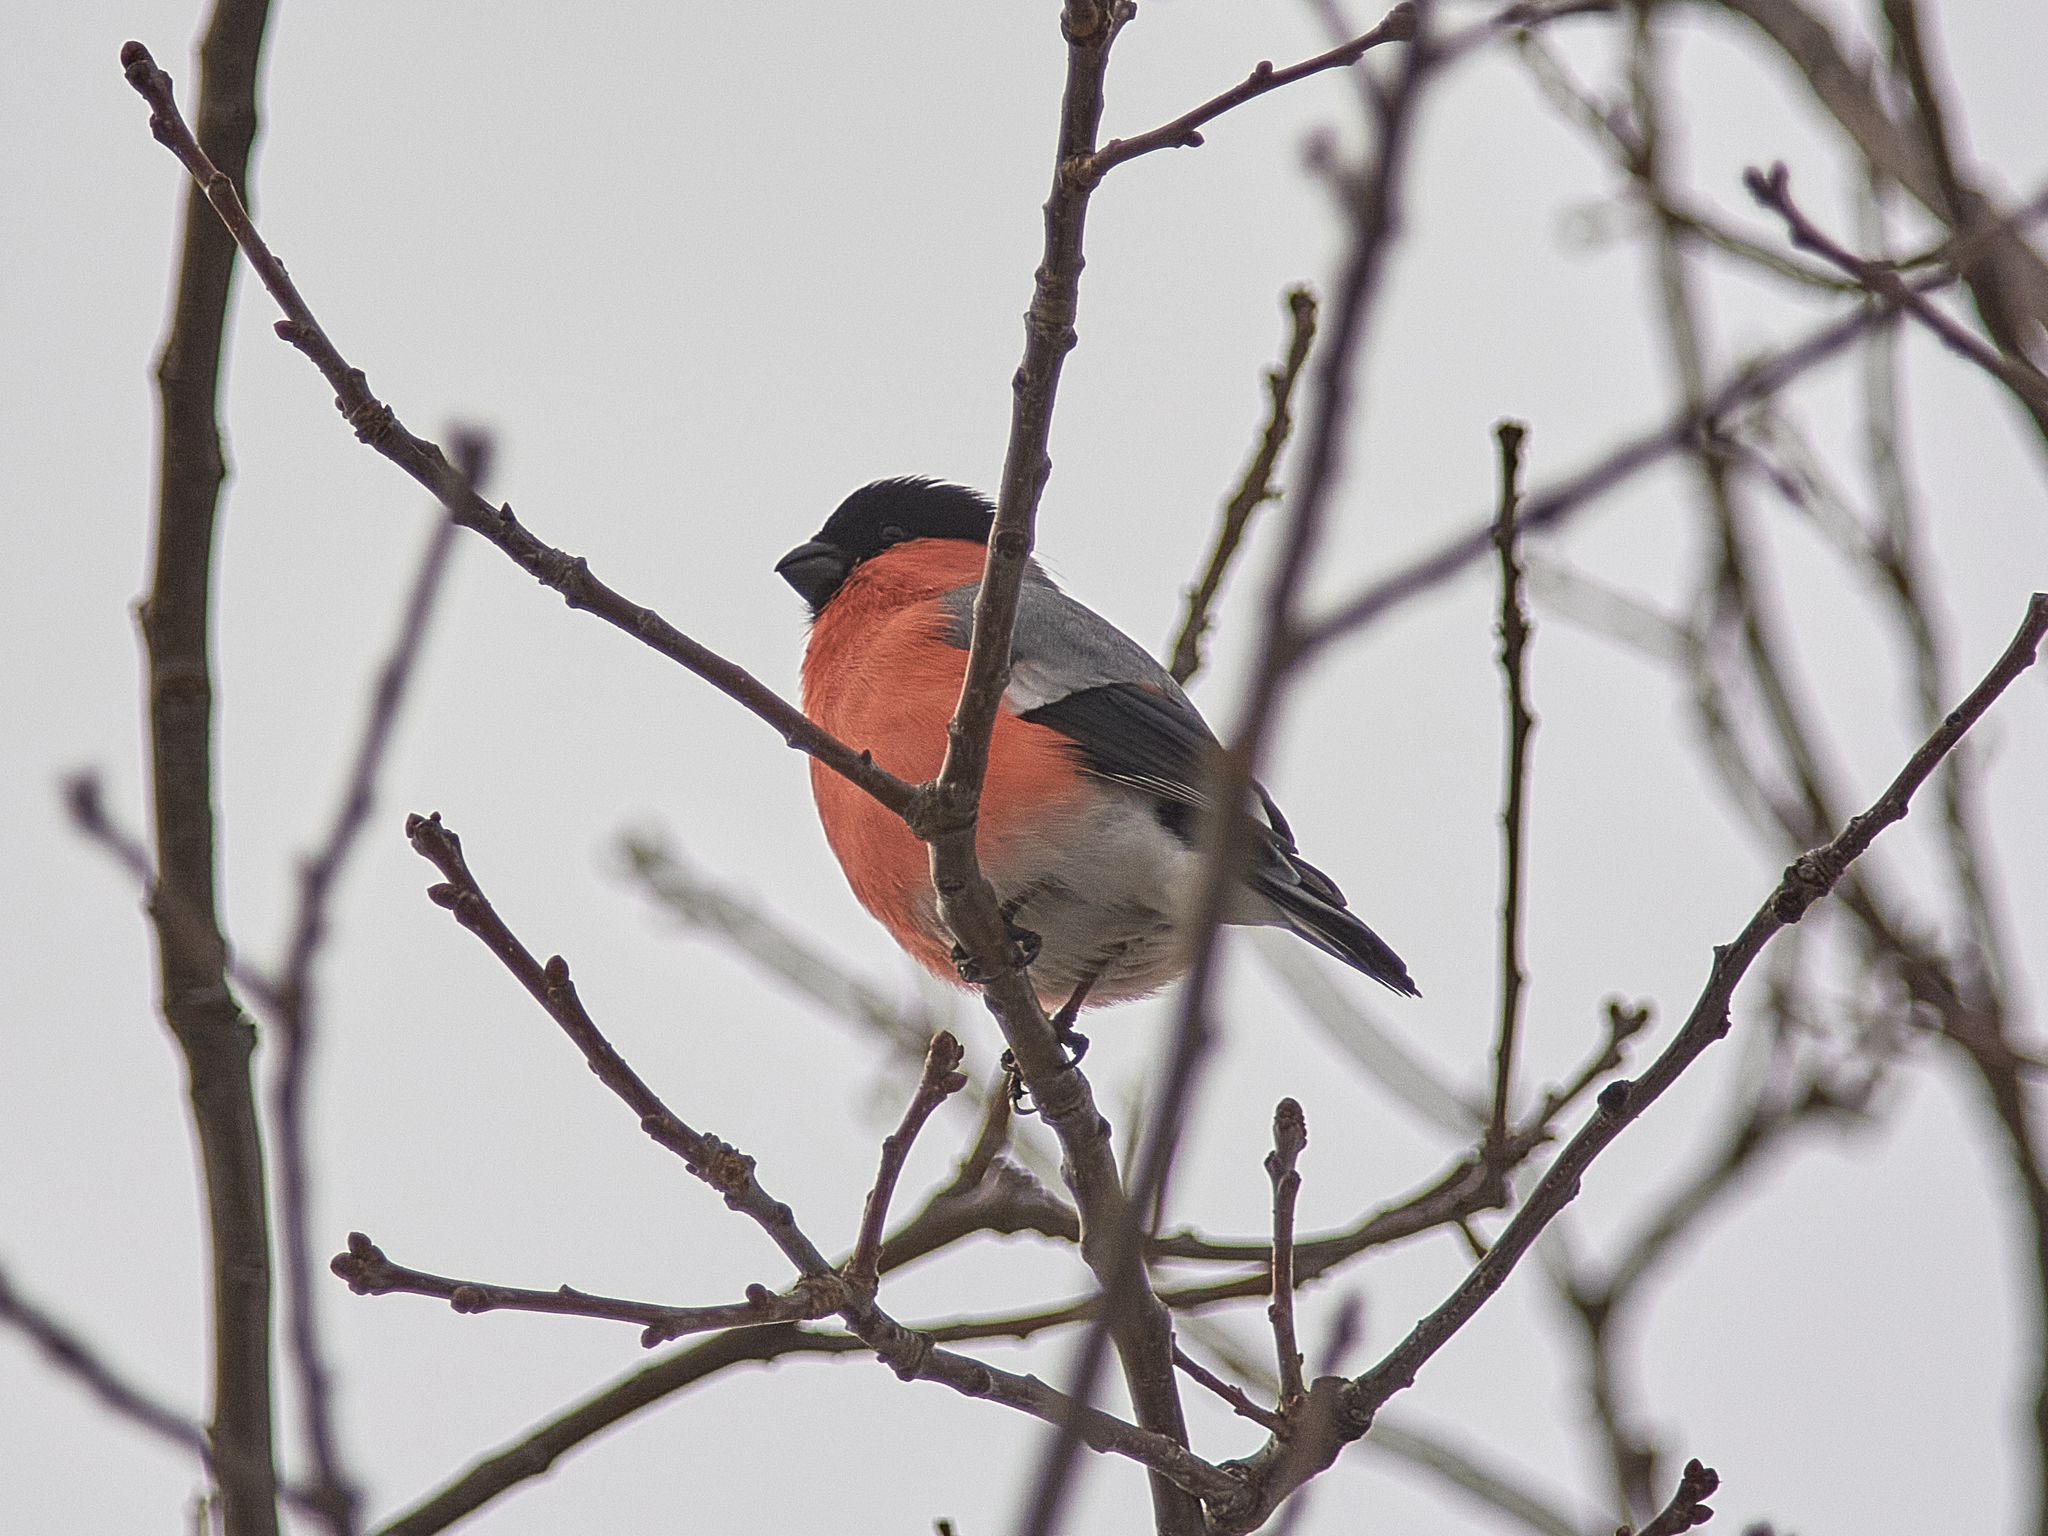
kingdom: Animalia
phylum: Chordata
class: Aves
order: Passeriformes
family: Fringillidae
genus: Pyrrhula
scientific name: Pyrrhula pyrrhula
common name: Eurasian bullfinch
